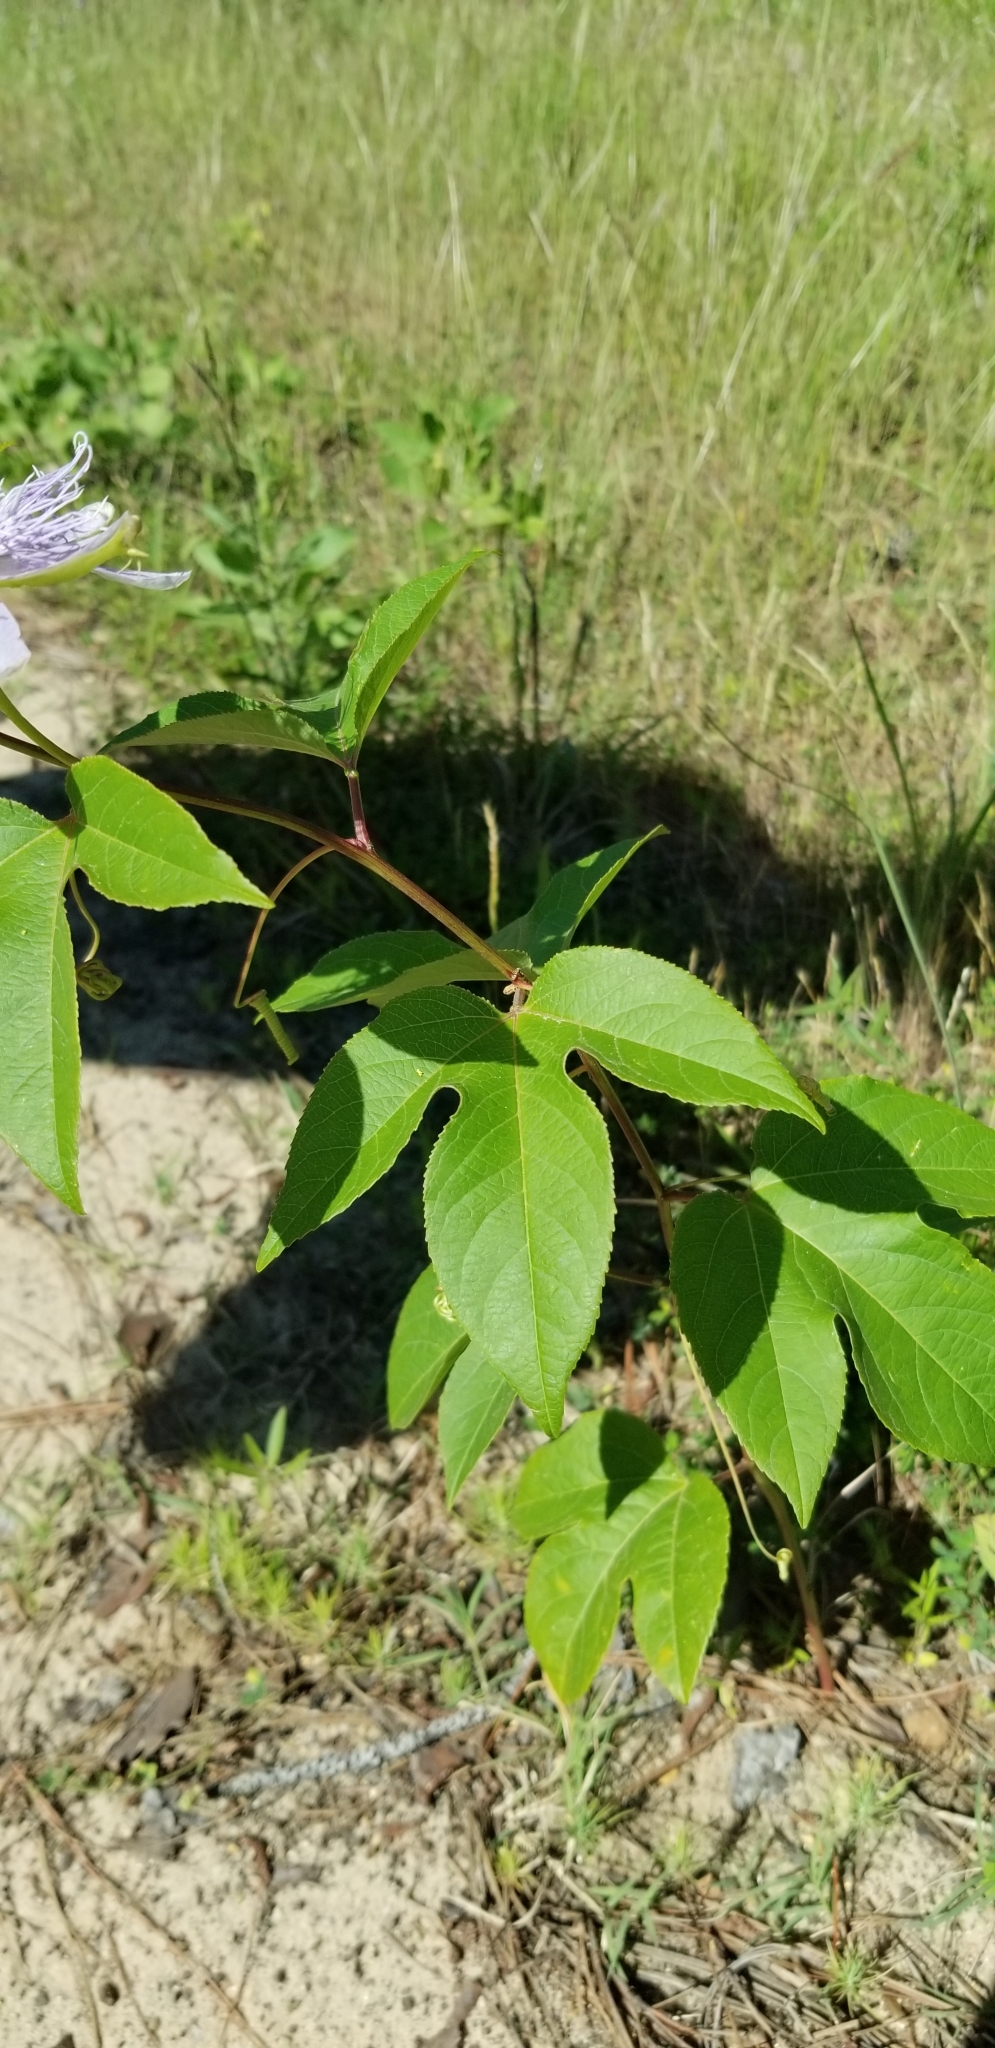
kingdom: Plantae
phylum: Tracheophyta
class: Magnoliopsida
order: Malpighiales
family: Passifloraceae
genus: Passiflora
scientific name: Passiflora incarnata
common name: Apricot-vine
